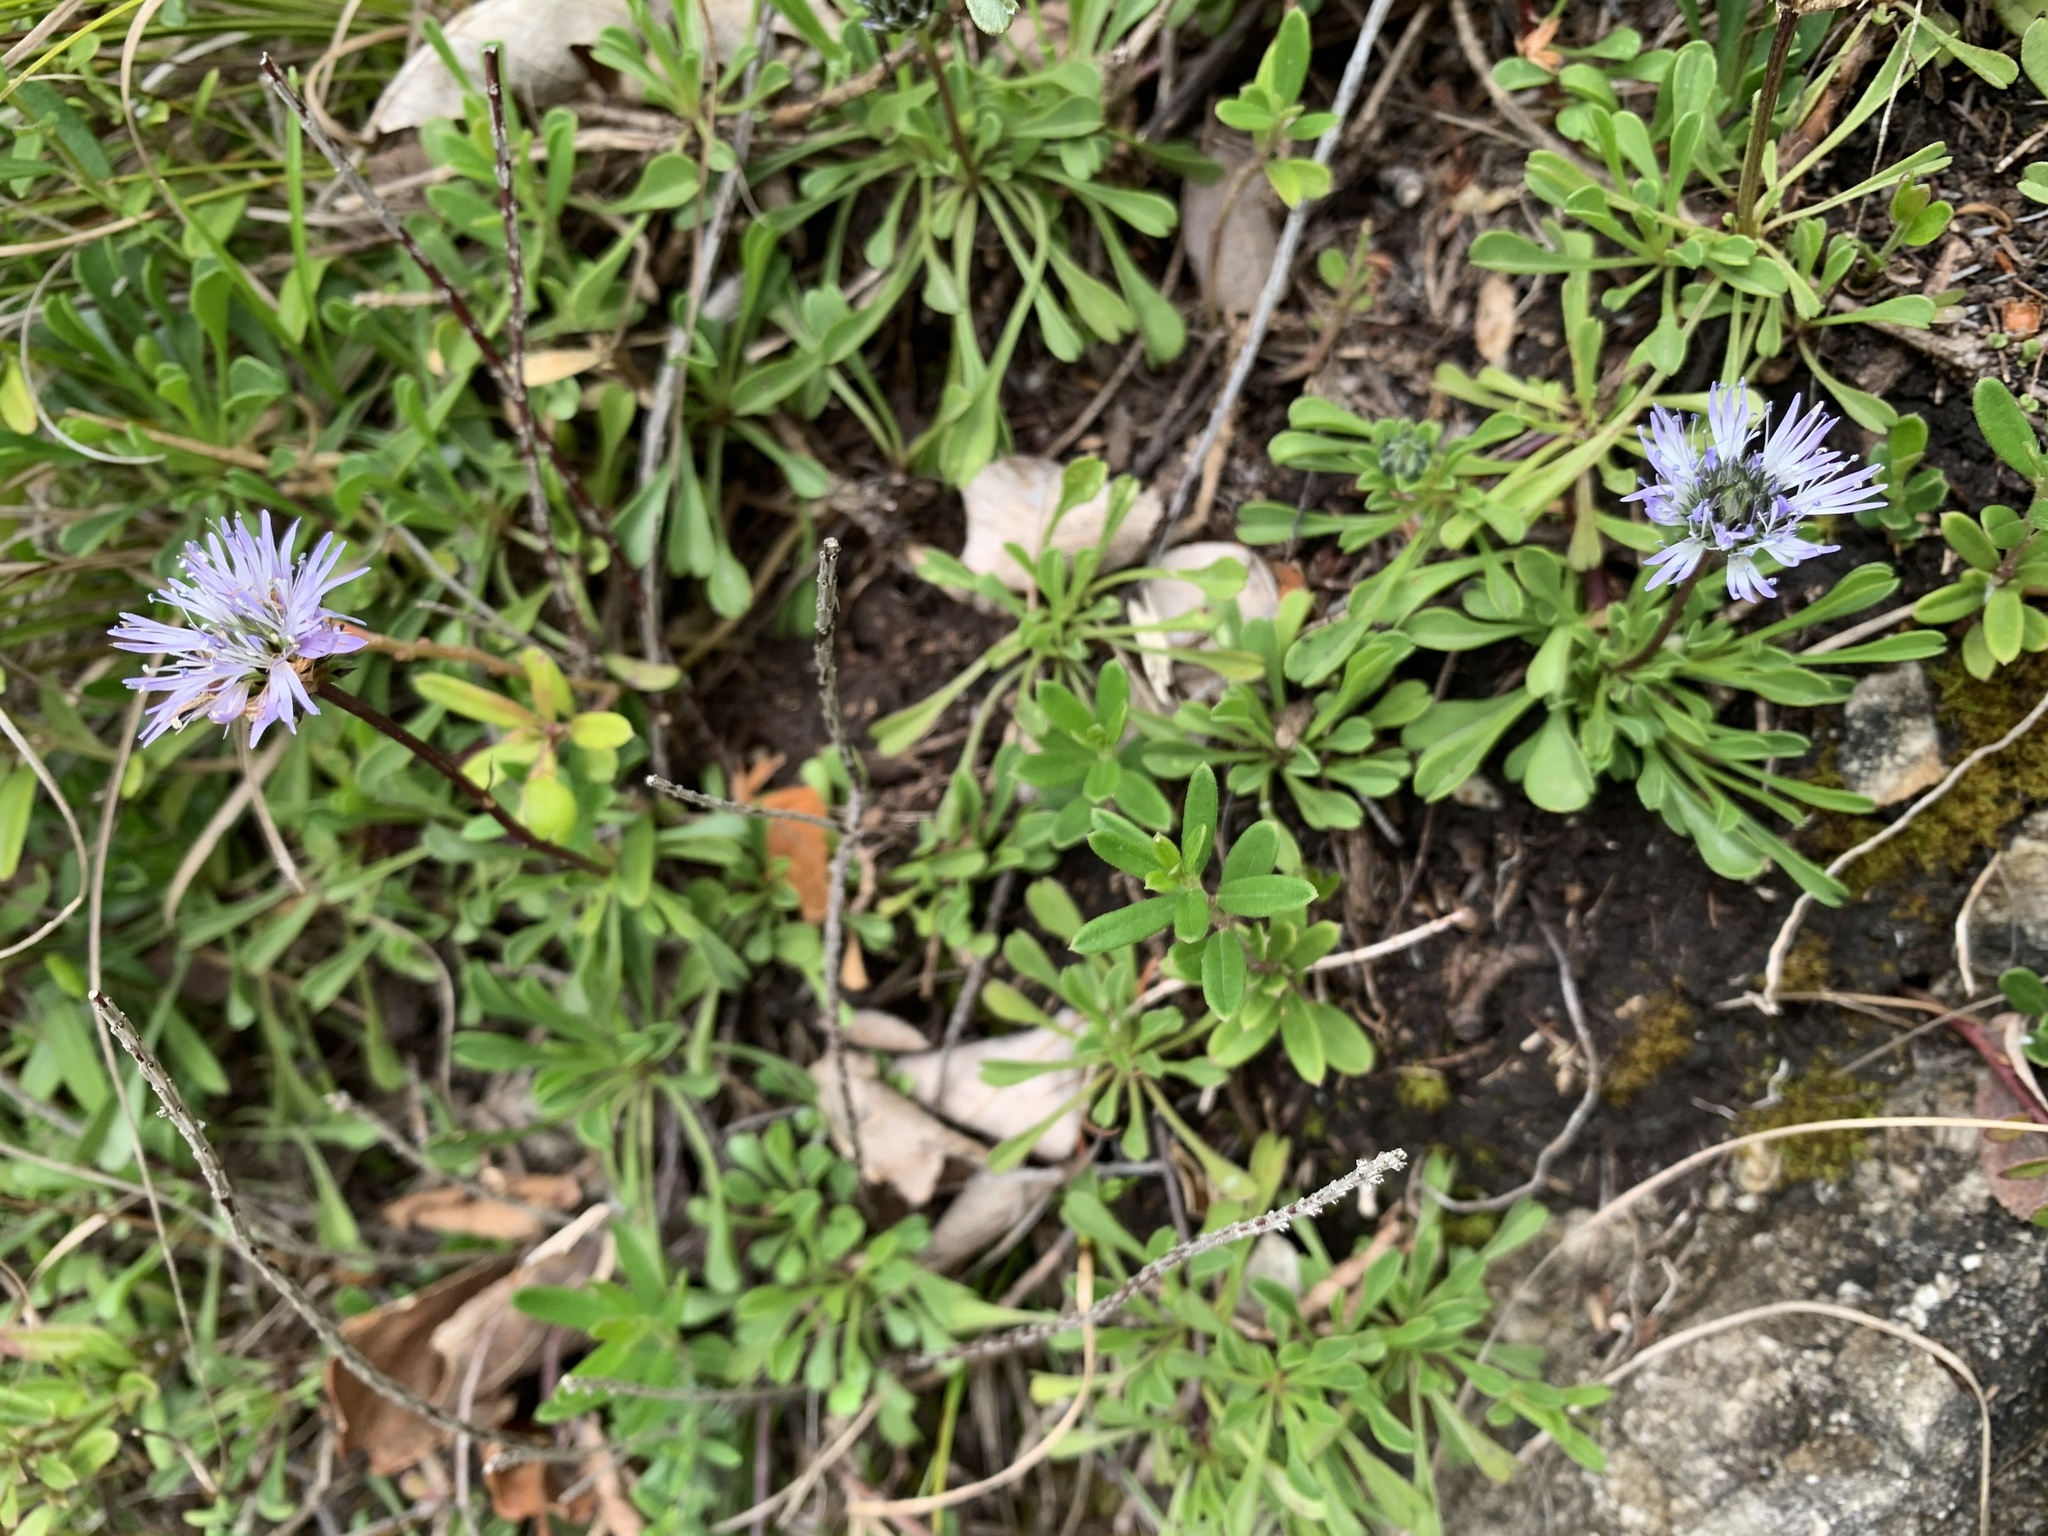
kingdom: Plantae
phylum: Tracheophyta
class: Magnoliopsida
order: Lamiales
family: Plantaginaceae
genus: Globularia
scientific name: Globularia cordifolia
